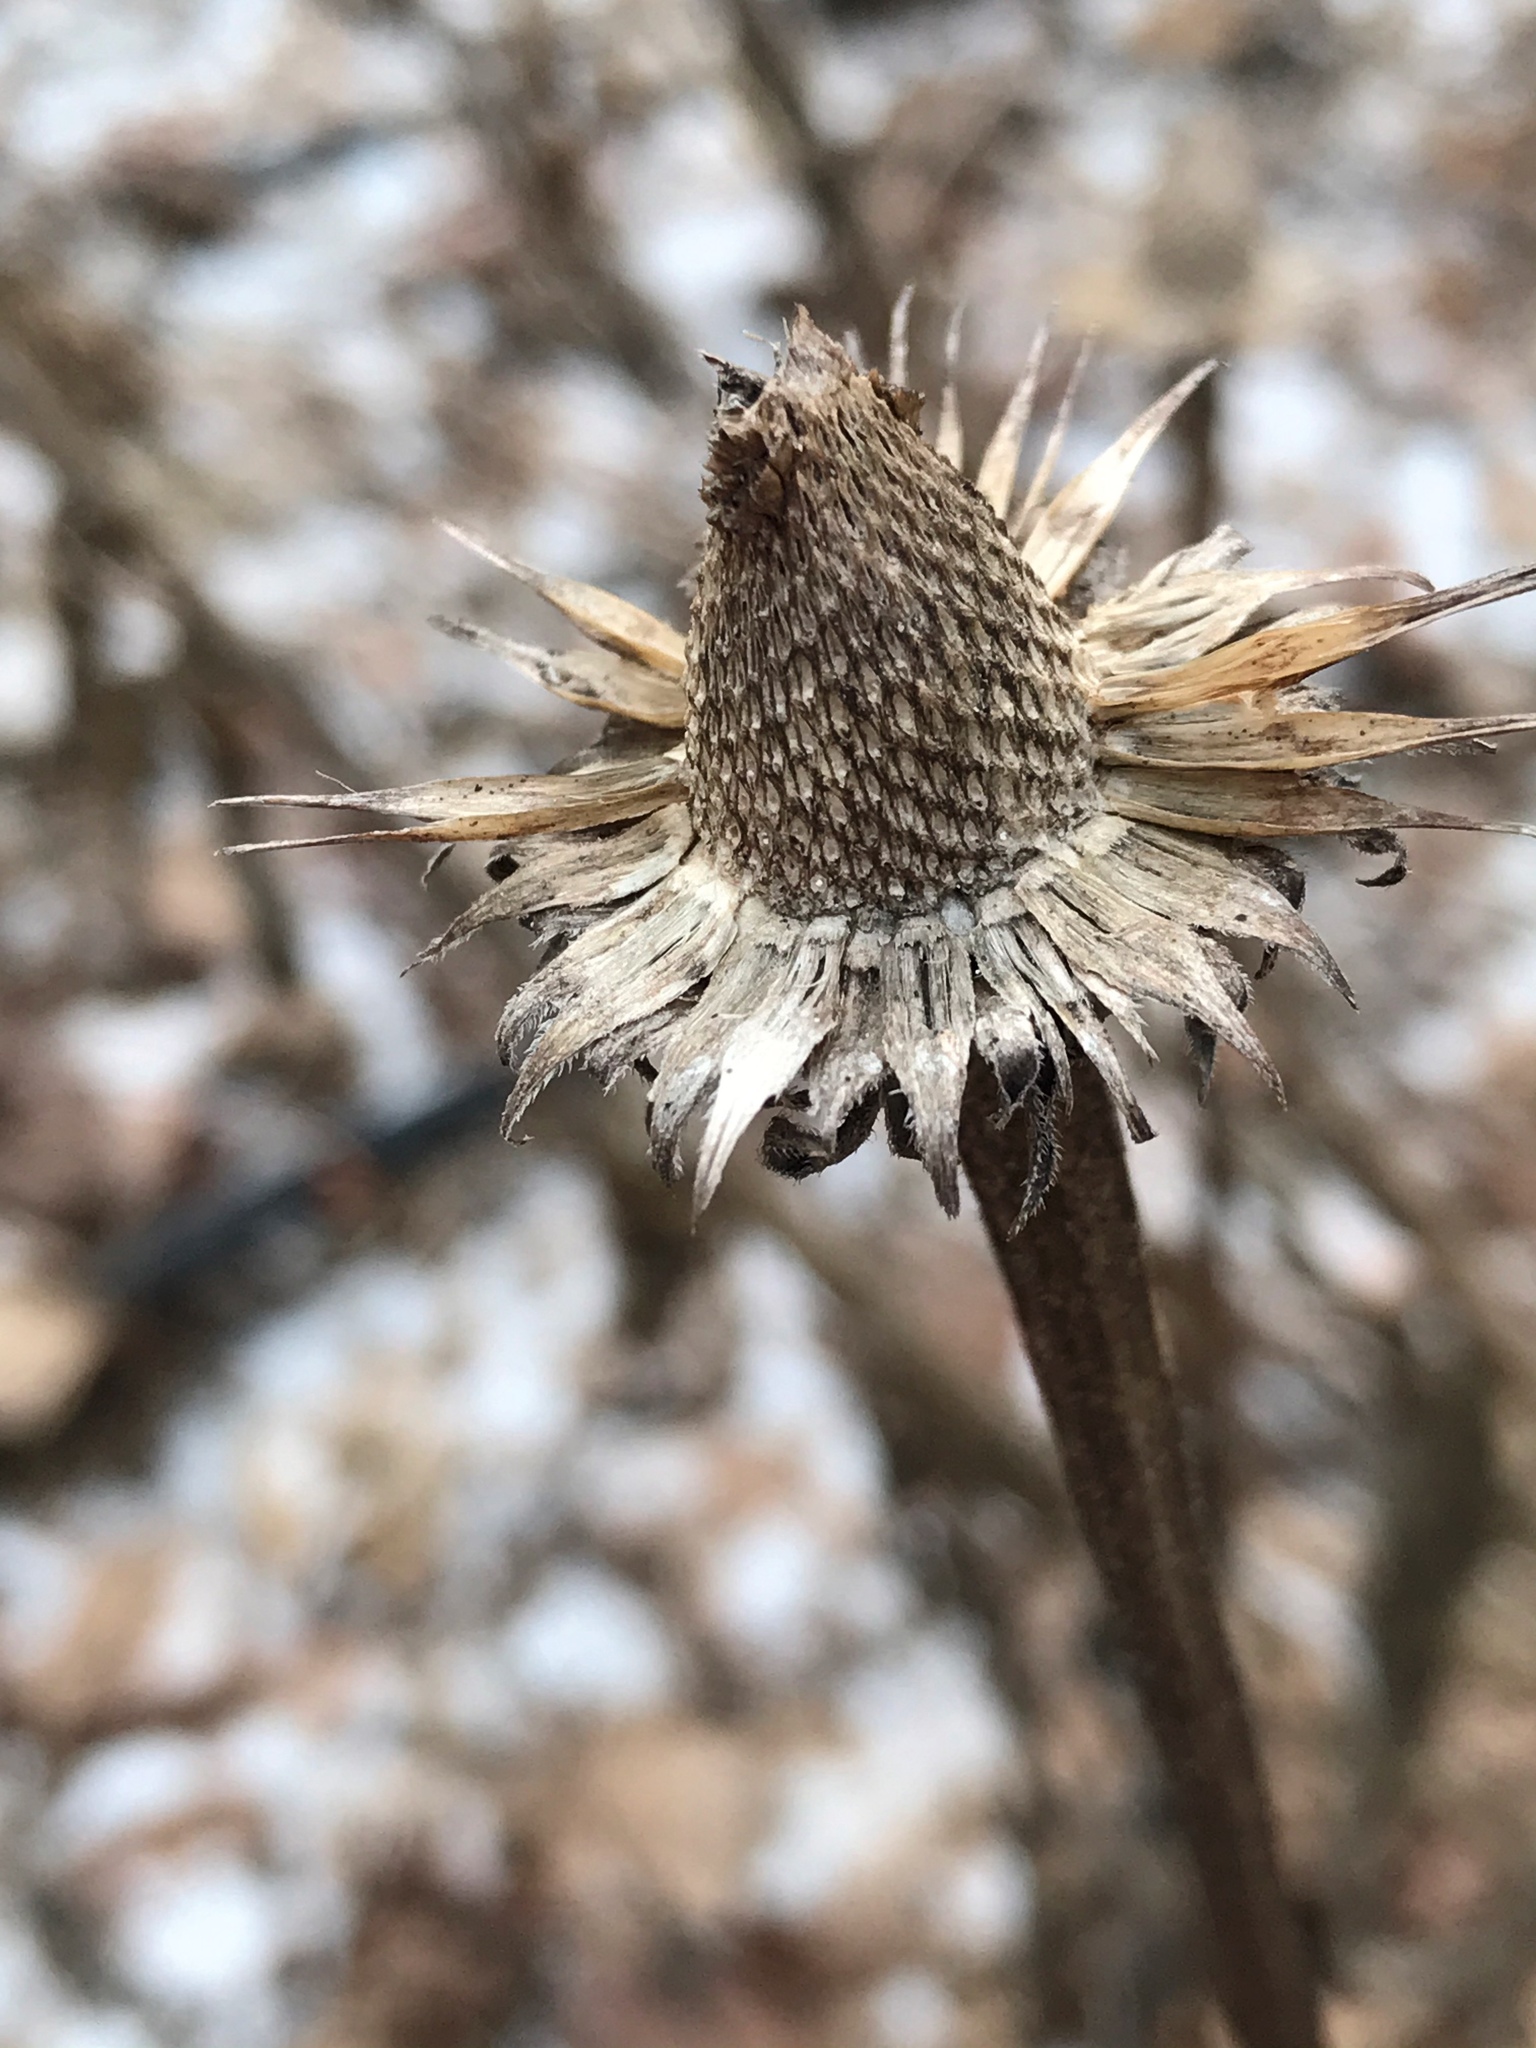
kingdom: Plantae
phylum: Tracheophyta
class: Magnoliopsida
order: Asterales
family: Asteraceae
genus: Echinacea
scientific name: Echinacea purpurea
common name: Broad-leaved purple coneflower
